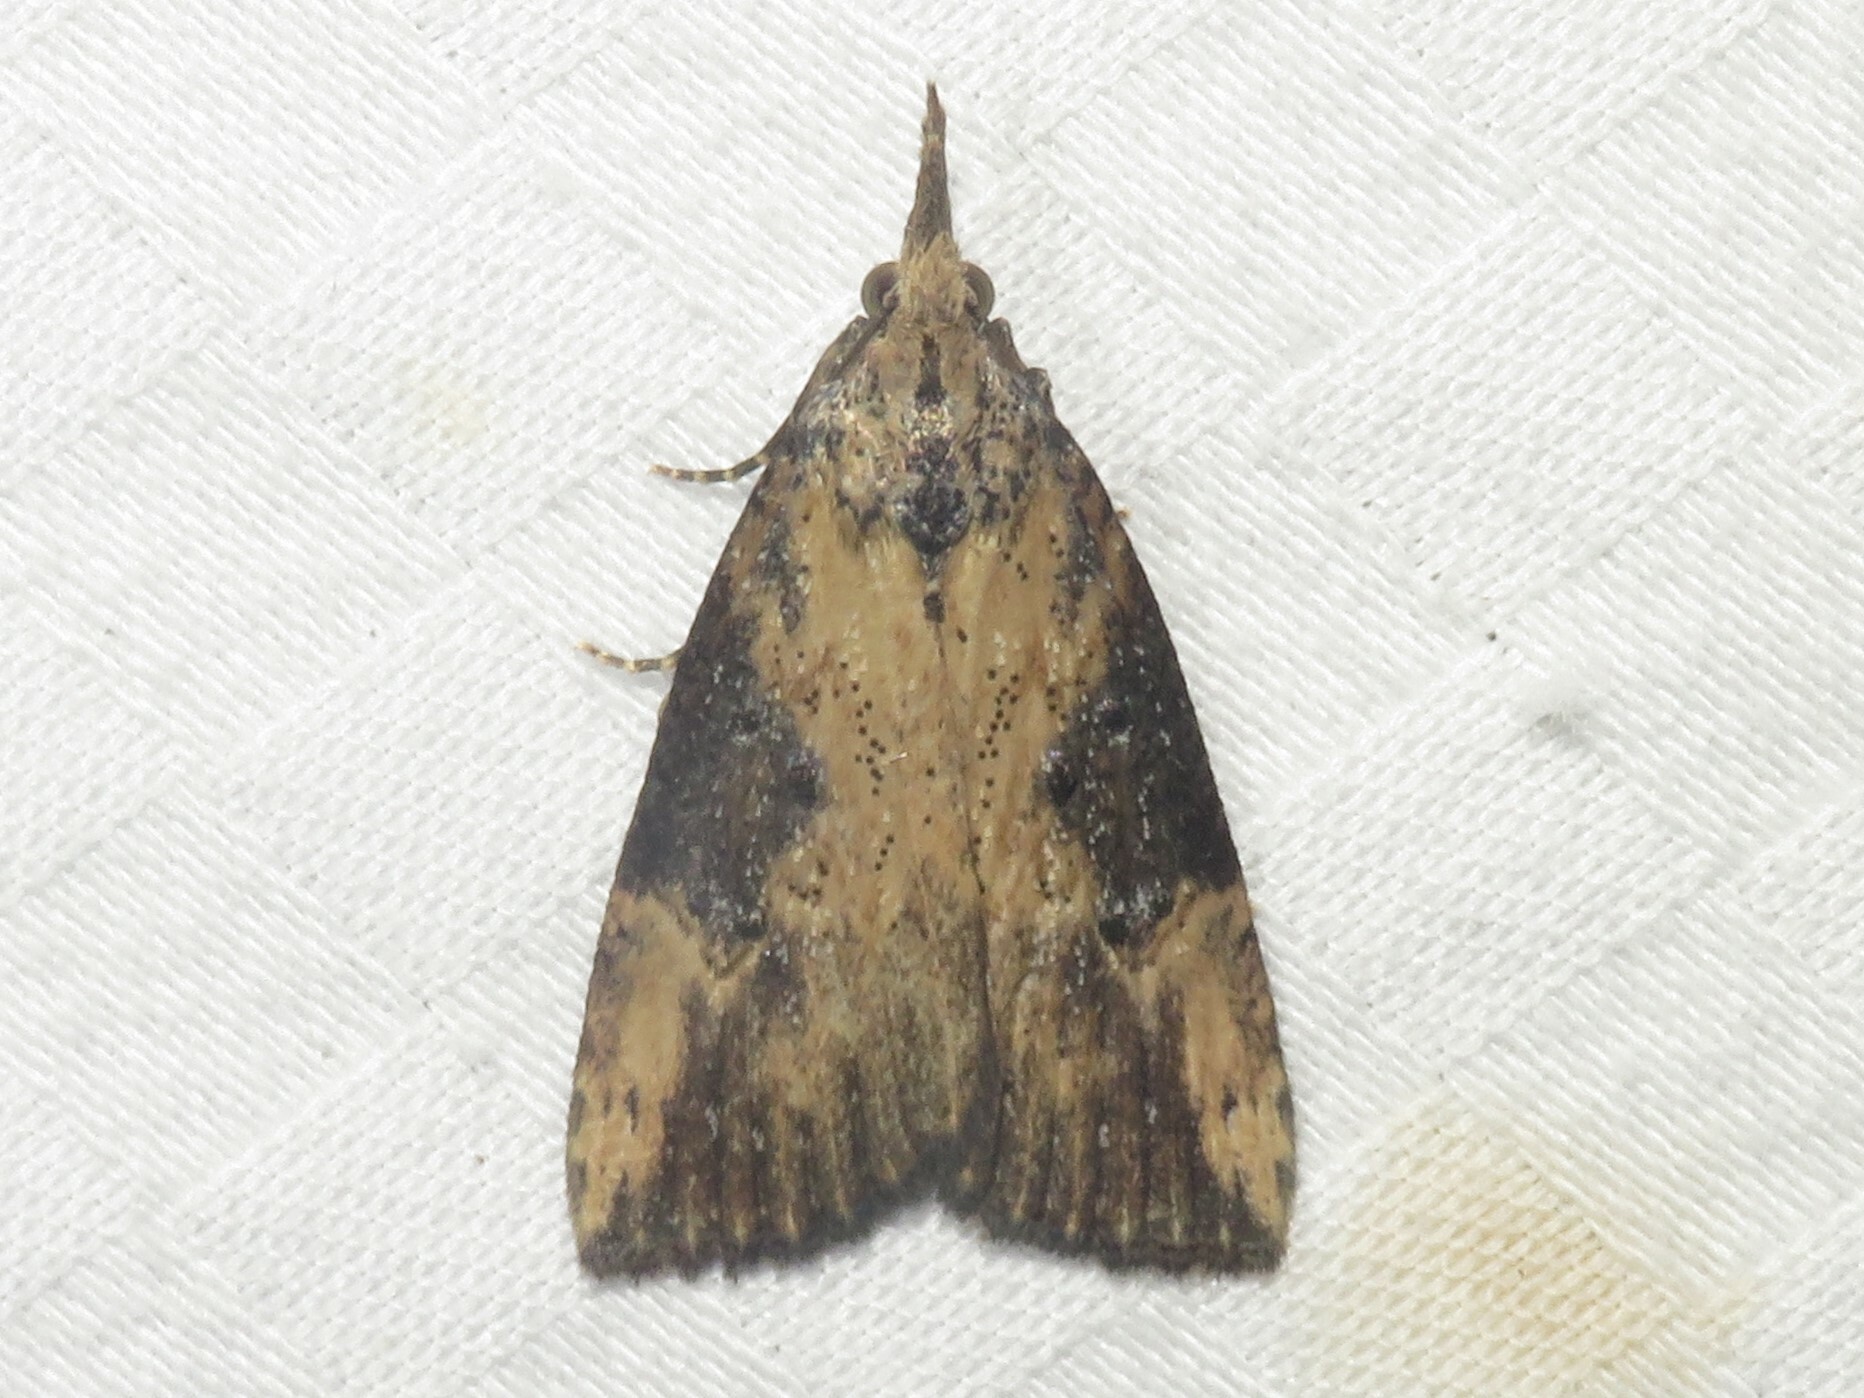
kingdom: Animalia
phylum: Arthropoda
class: Insecta
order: Lepidoptera
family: Erebidae
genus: Hypena
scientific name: Hypena humuli
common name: Hop vine snout
